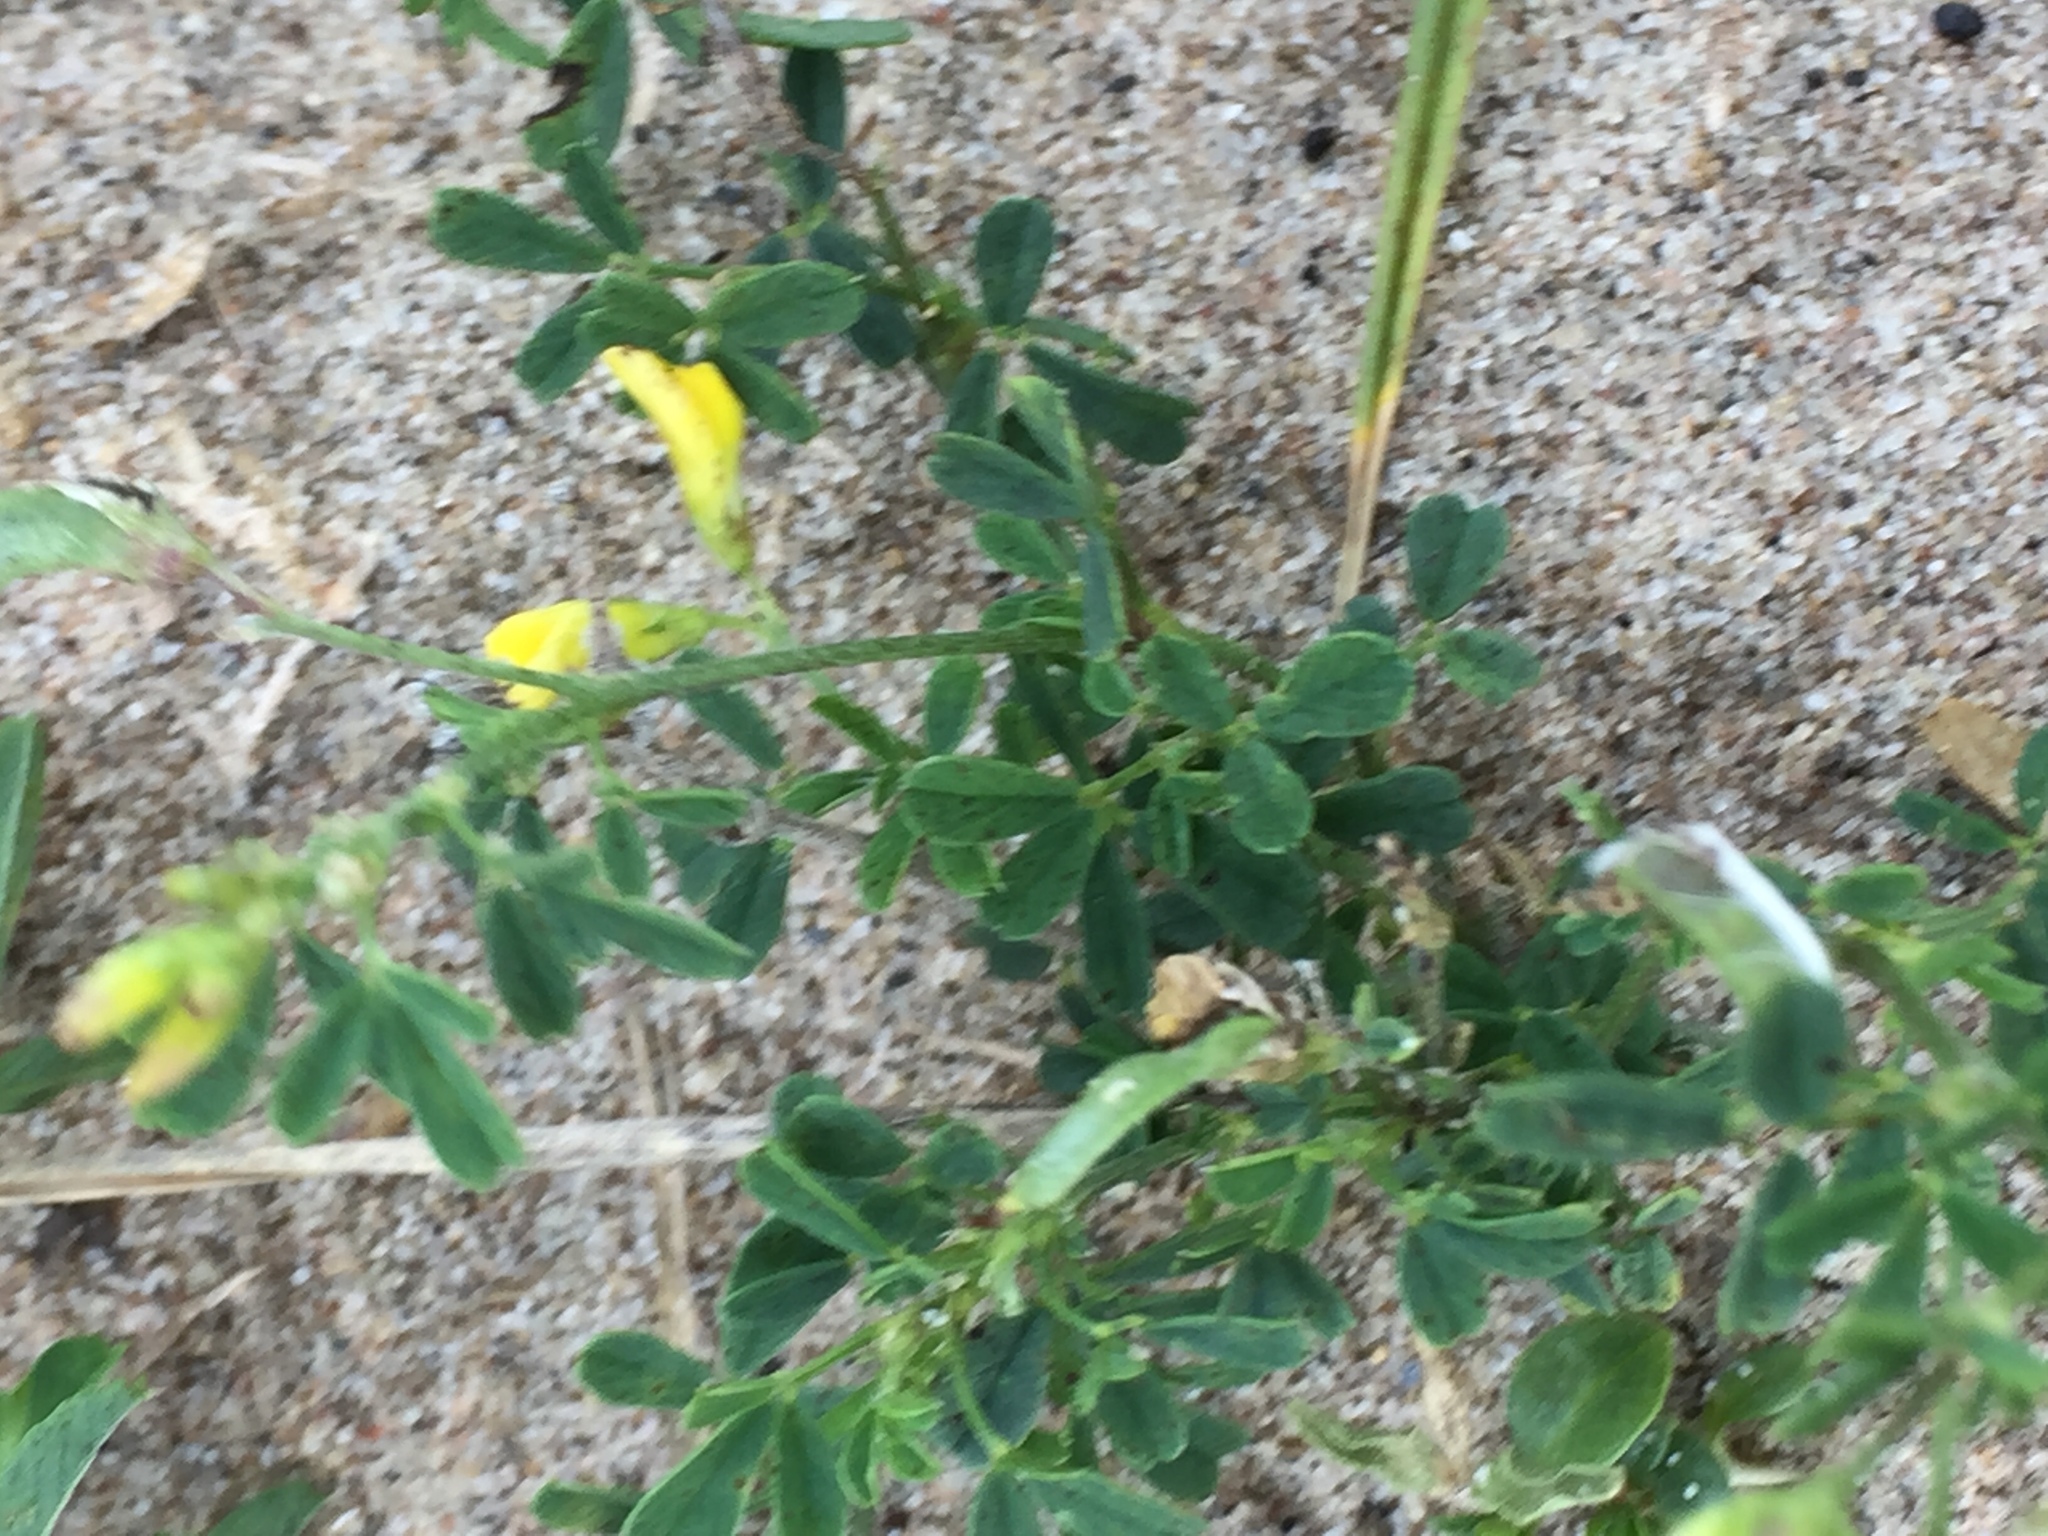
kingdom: Plantae
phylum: Tracheophyta
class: Magnoliopsida
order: Fabales
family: Fabaceae
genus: Medicago
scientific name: Medicago falcata
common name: Sickle medick
